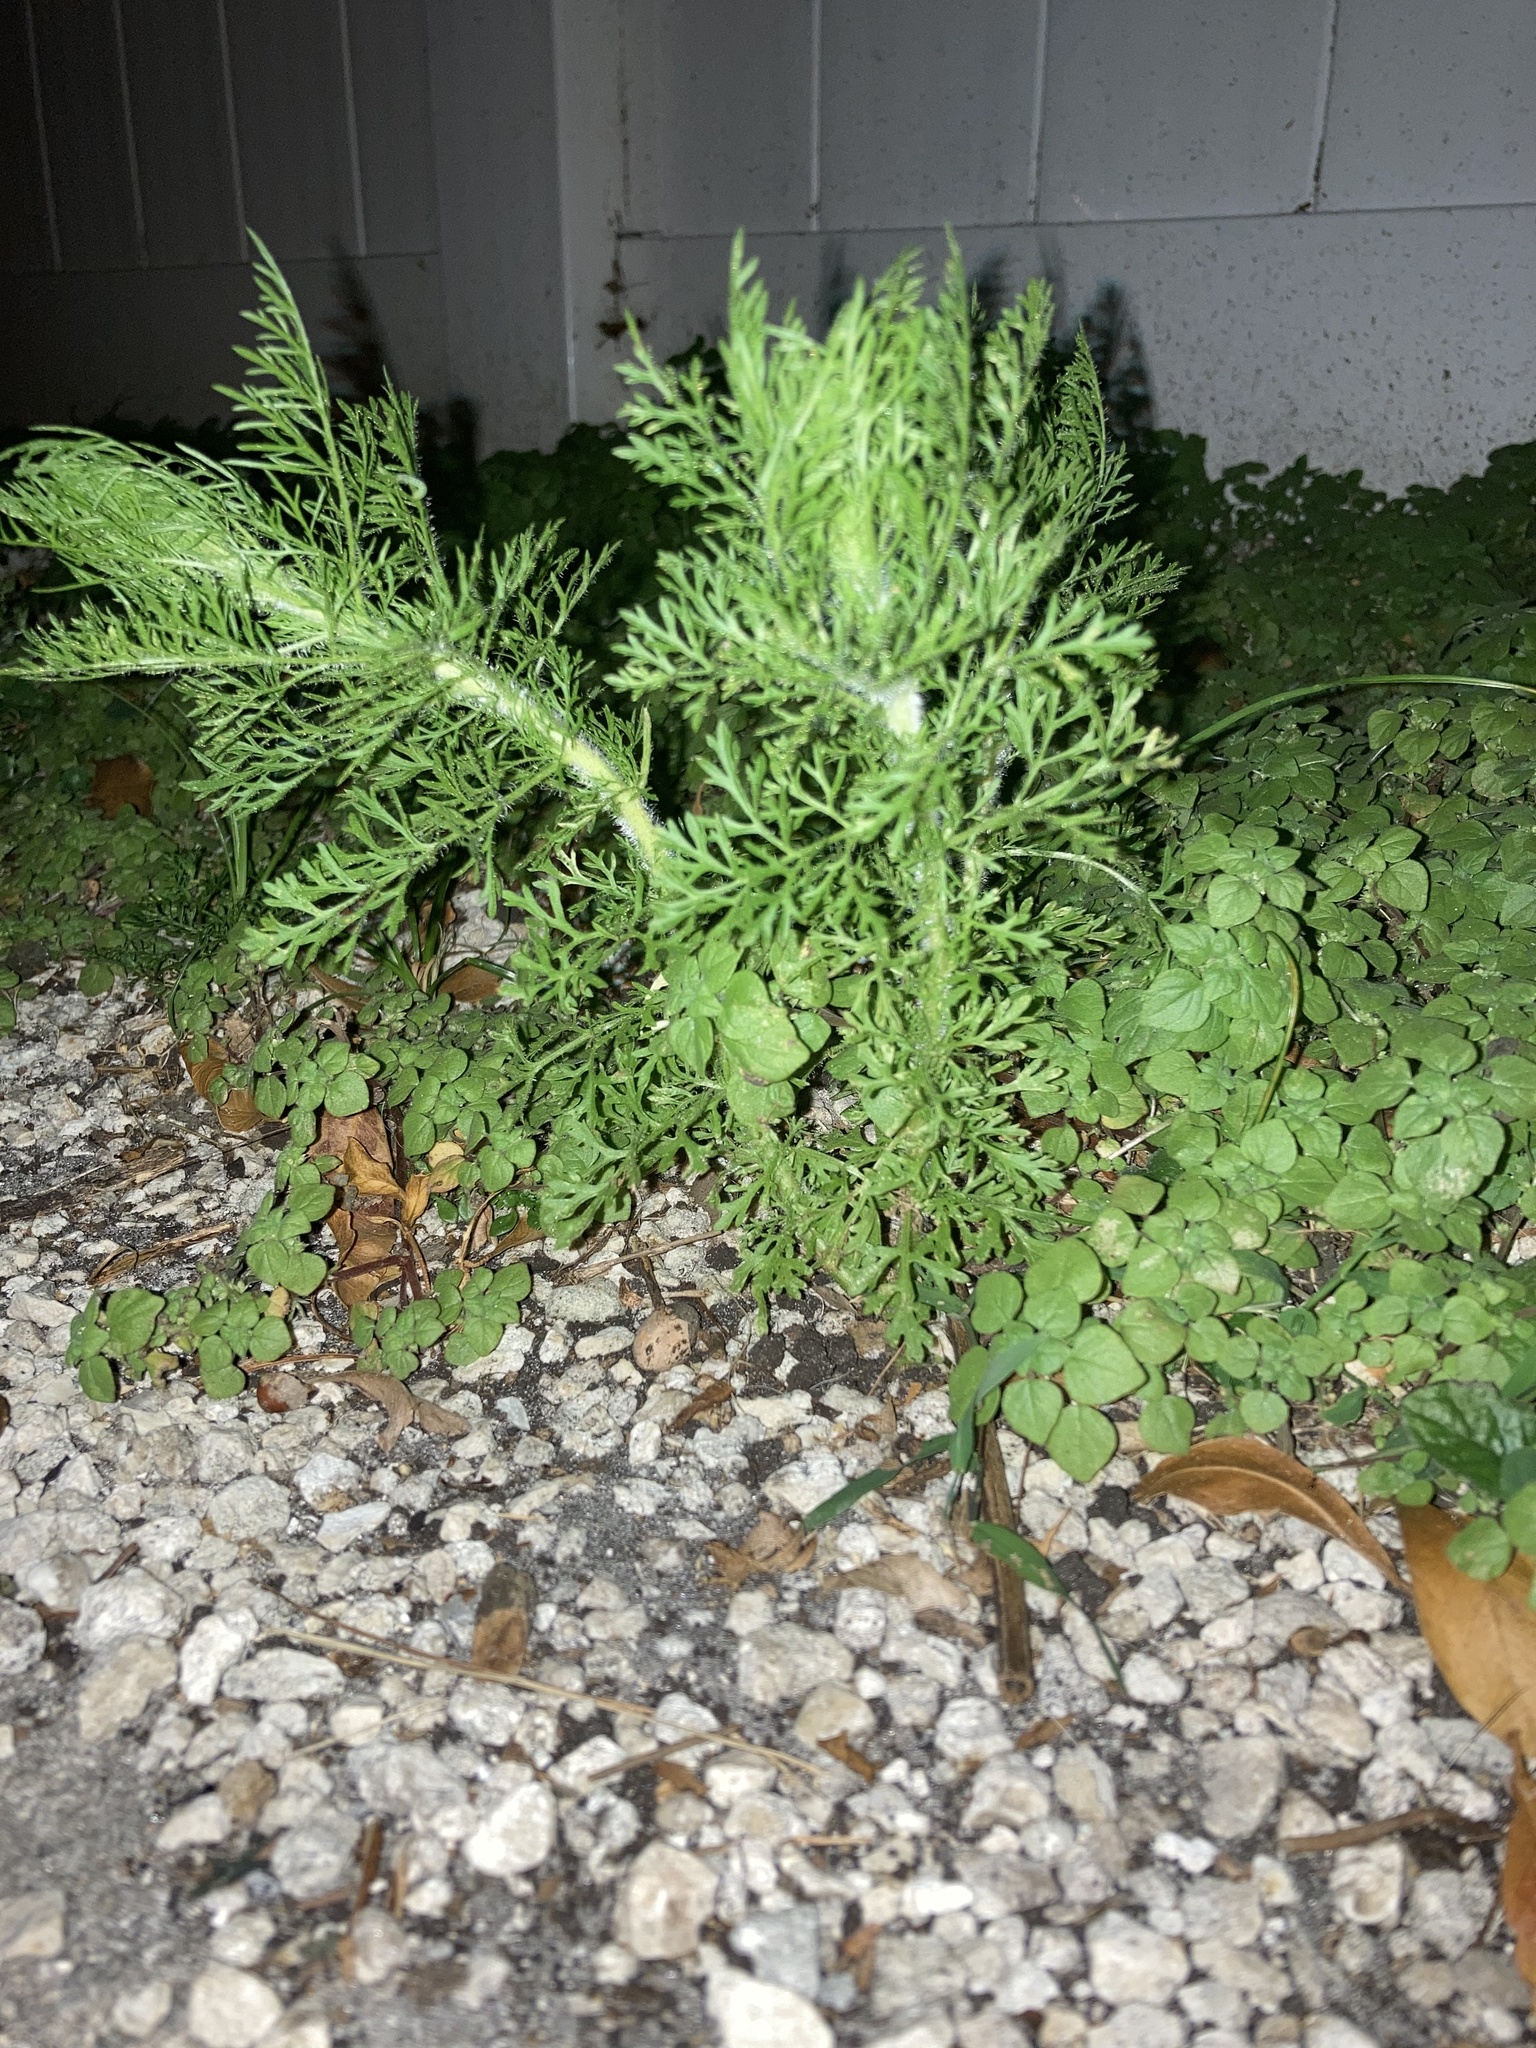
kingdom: Plantae
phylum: Tracheophyta
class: Magnoliopsida
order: Asterales
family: Asteraceae
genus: Eupatorium
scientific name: Eupatorium capillifolium
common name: Dog-fennel
